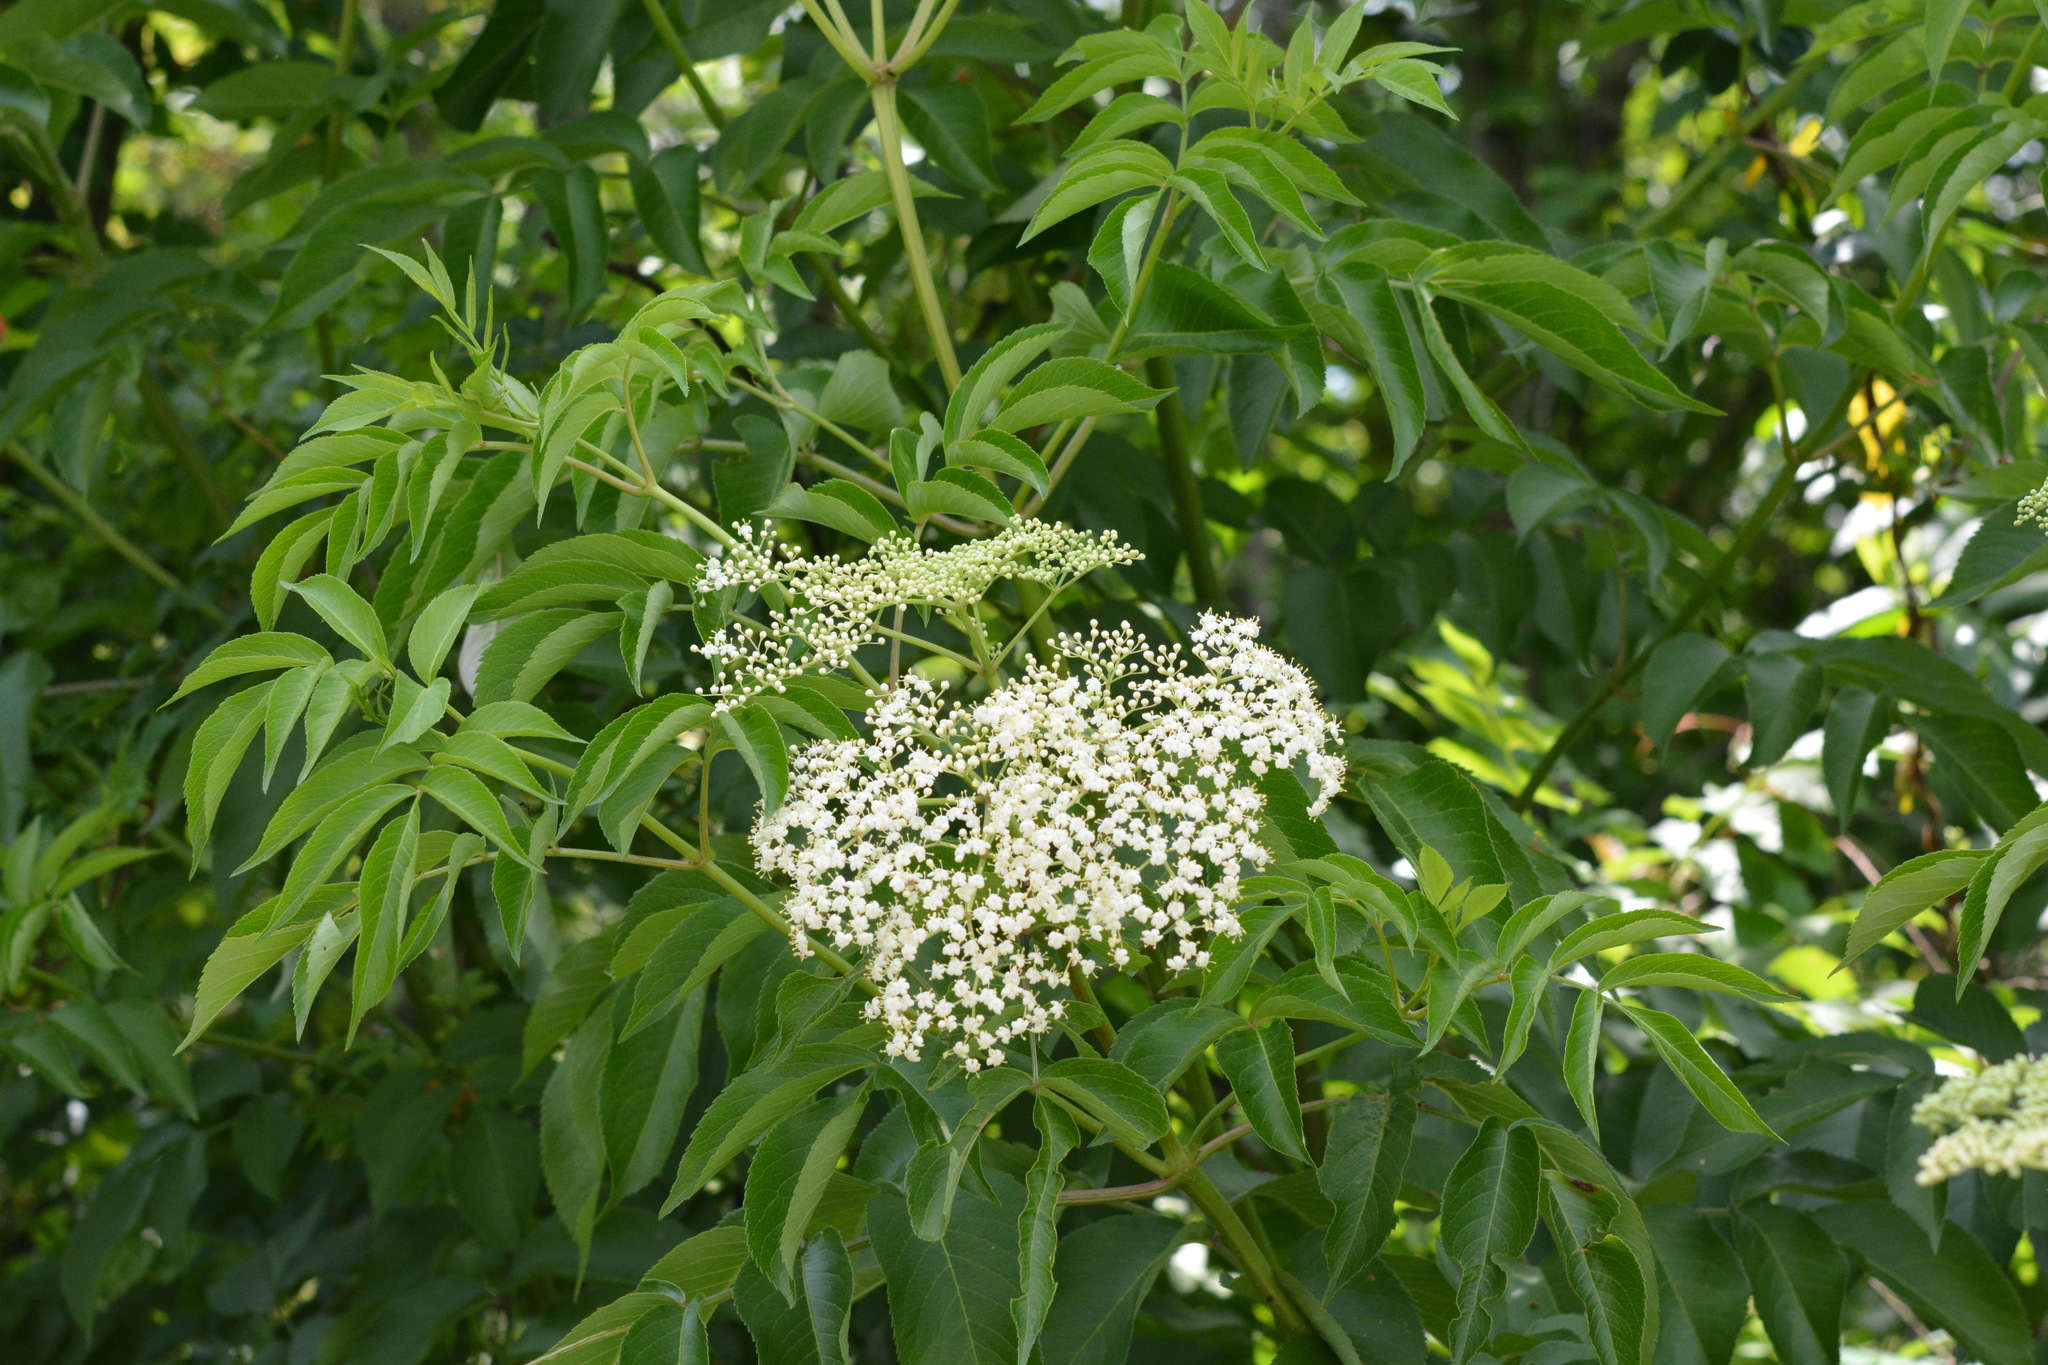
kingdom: Plantae
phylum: Tracheophyta
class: Magnoliopsida
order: Dipsacales
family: Viburnaceae
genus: Sambucus
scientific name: Sambucus canadensis
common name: American elder
